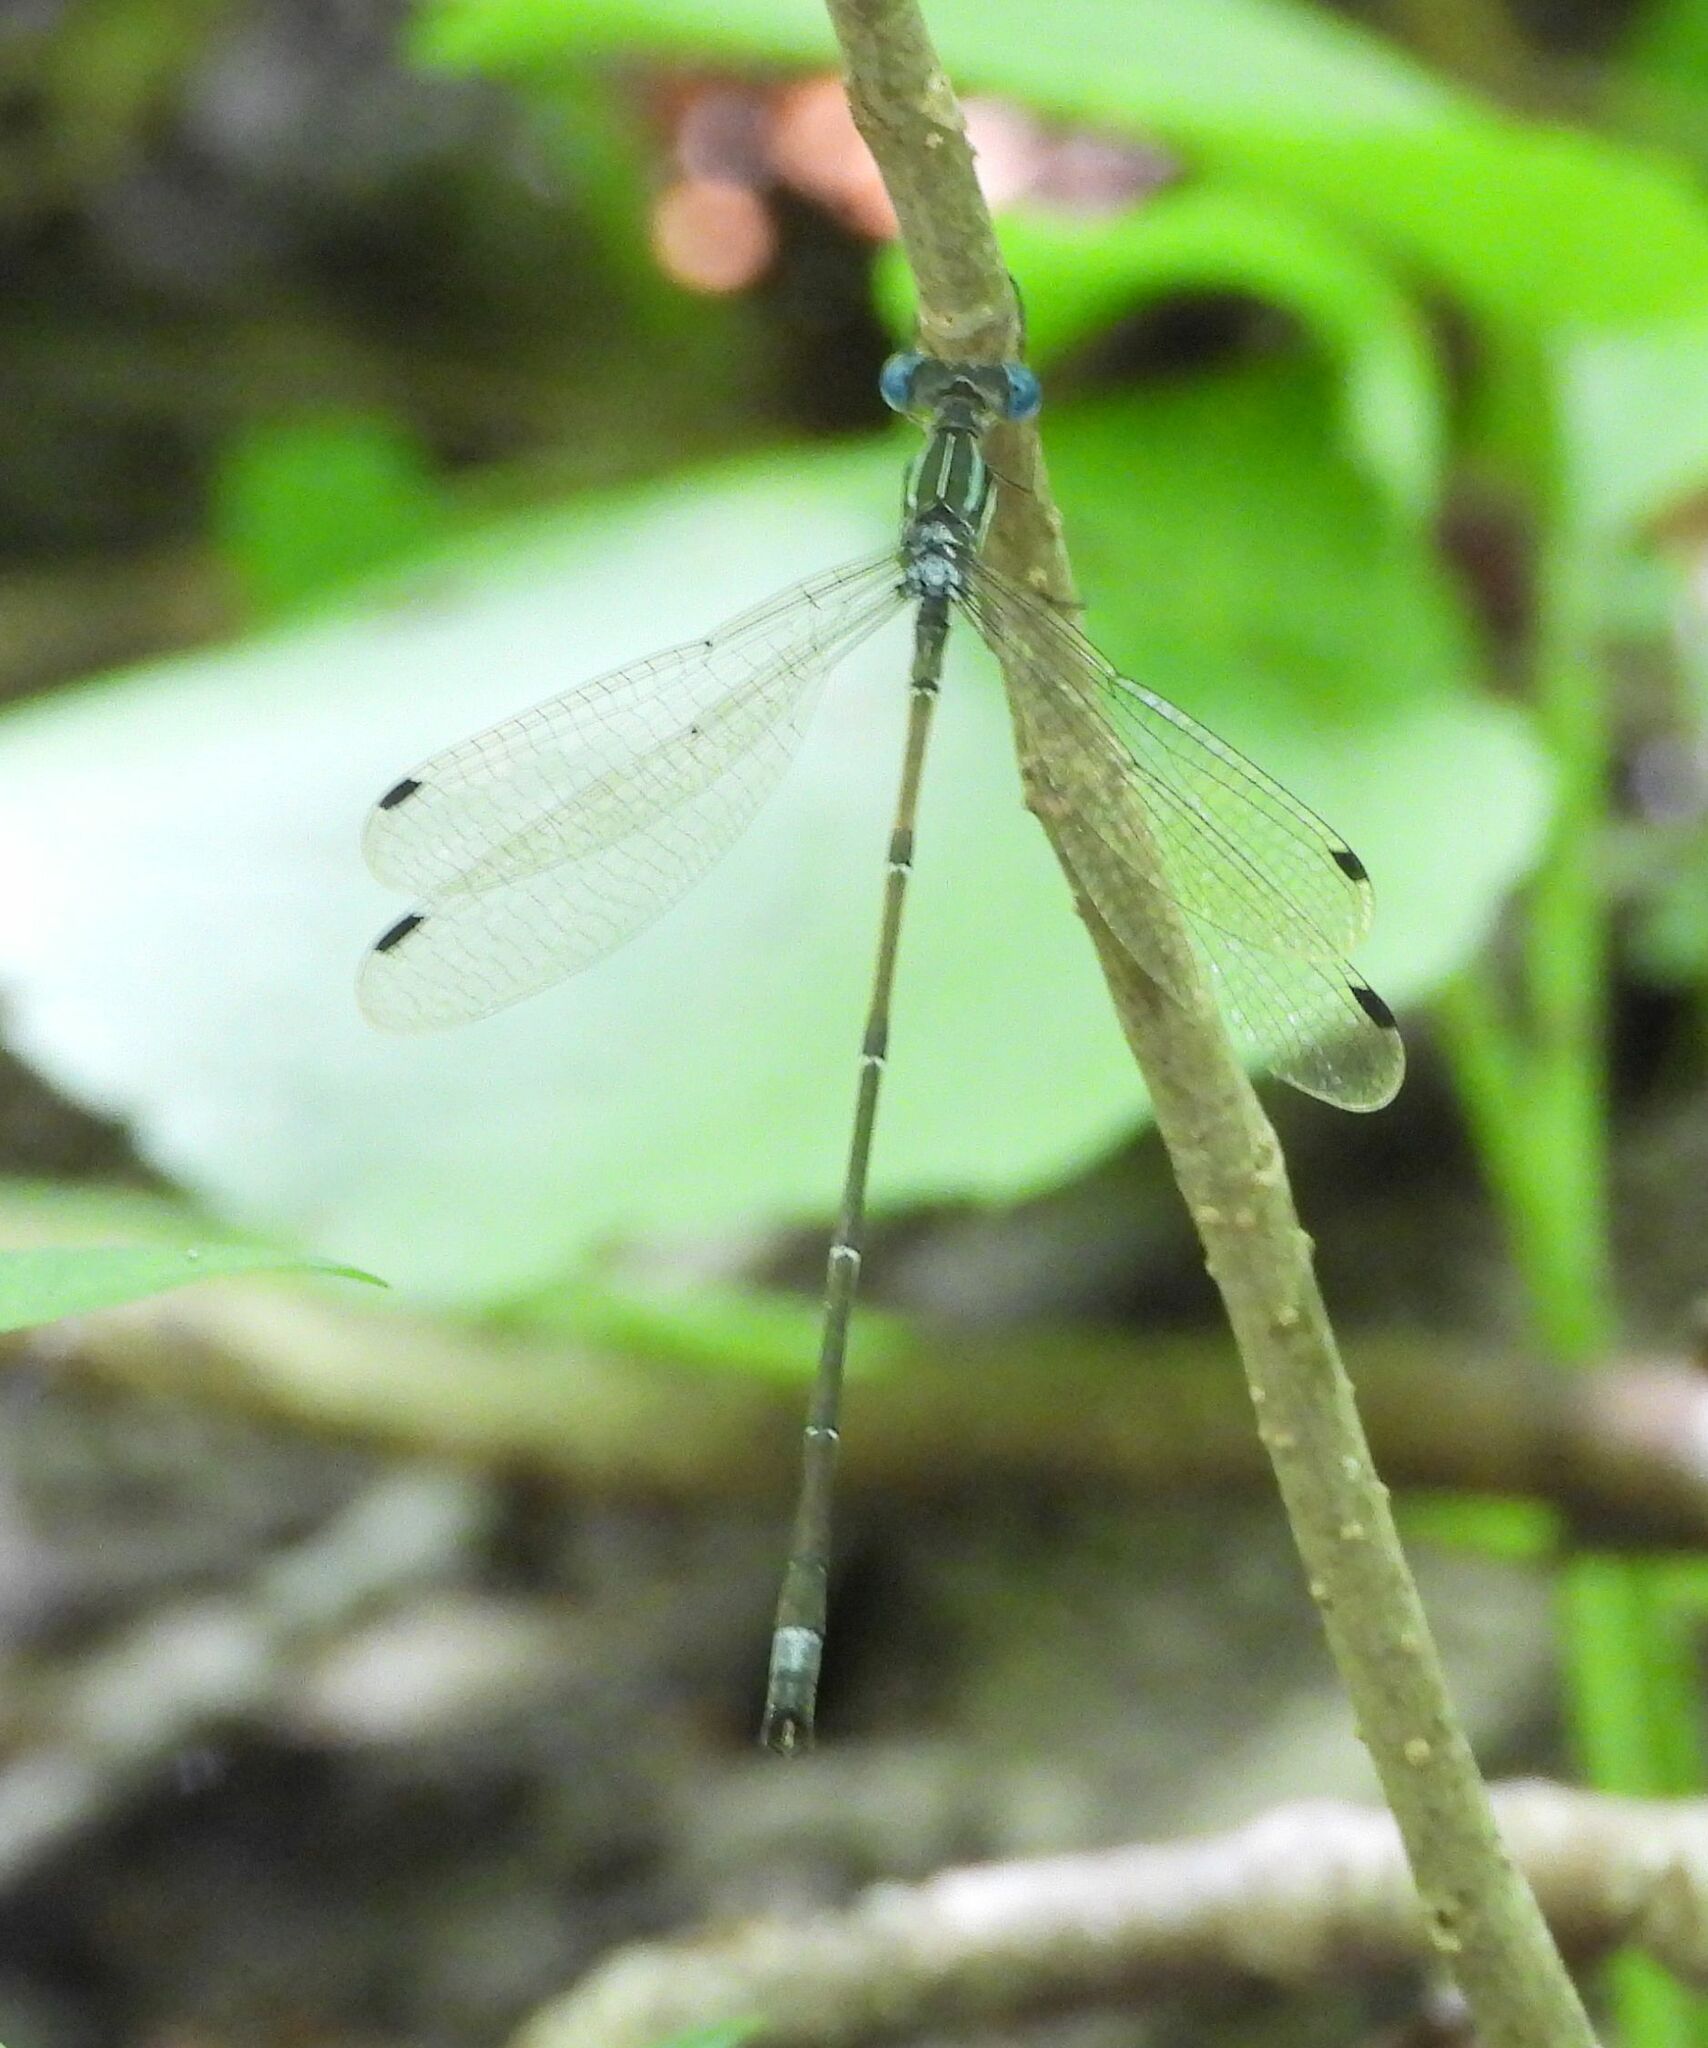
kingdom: Animalia
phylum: Arthropoda
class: Insecta
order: Odonata
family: Lestidae
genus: Lestes
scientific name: Lestes rectangularis
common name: Slender spreadwing
